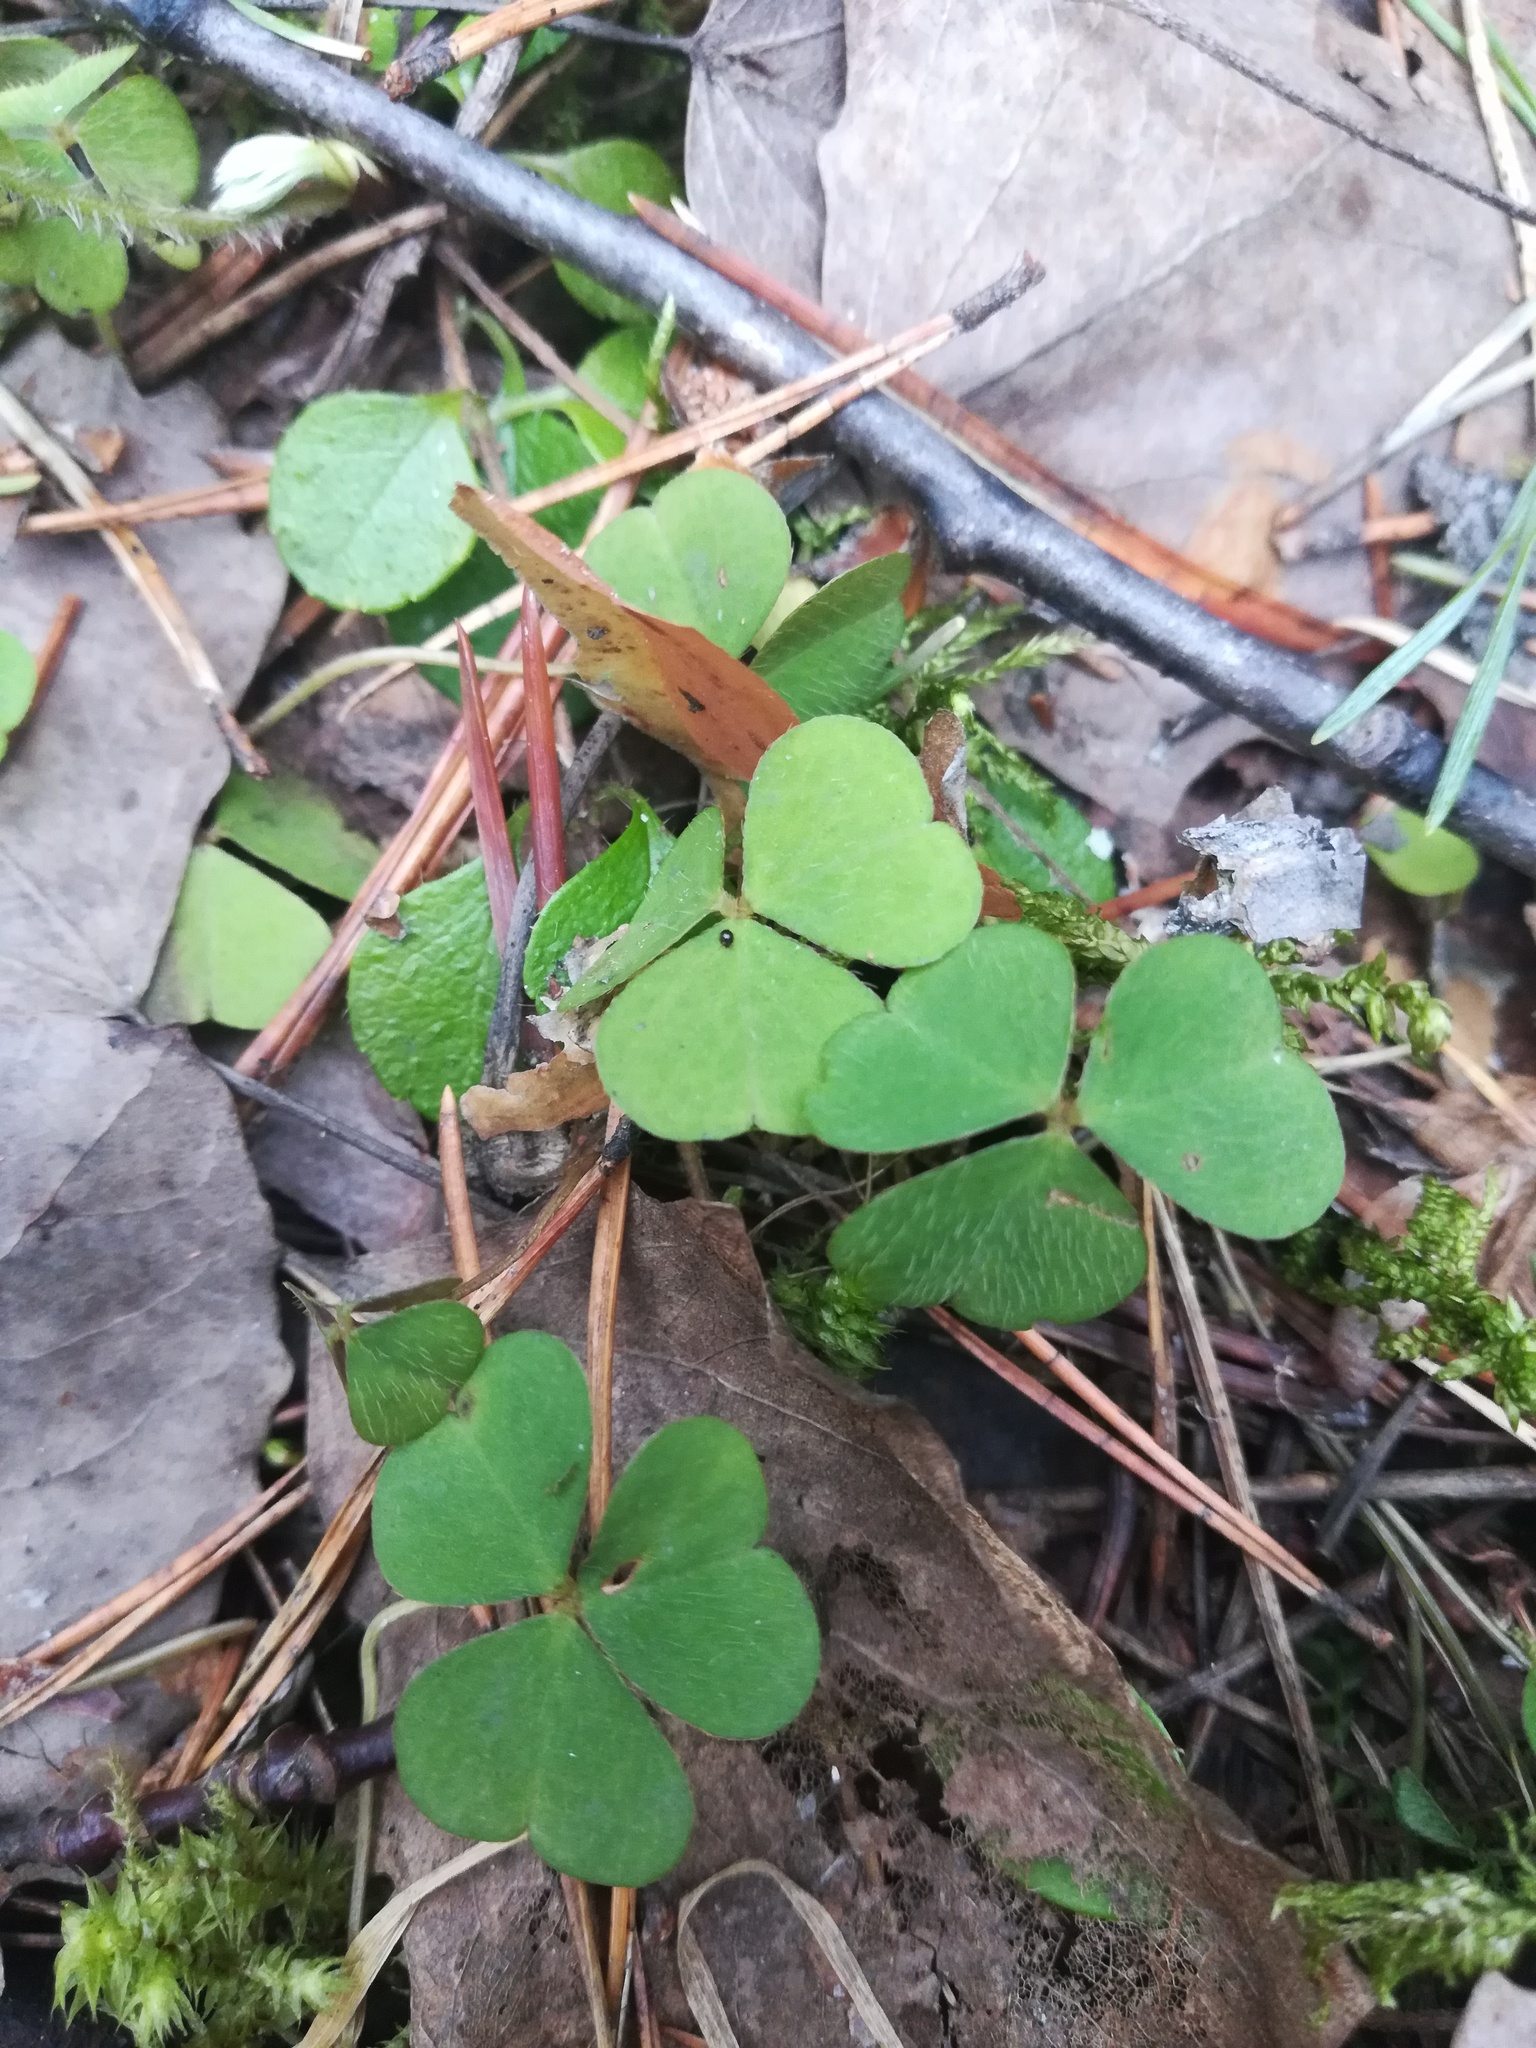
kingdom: Plantae
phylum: Tracheophyta
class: Magnoliopsida
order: Oxalidales
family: Oxalidaceae
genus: Oxalis
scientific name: Oxalis acetosella
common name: Wood-sorrel
